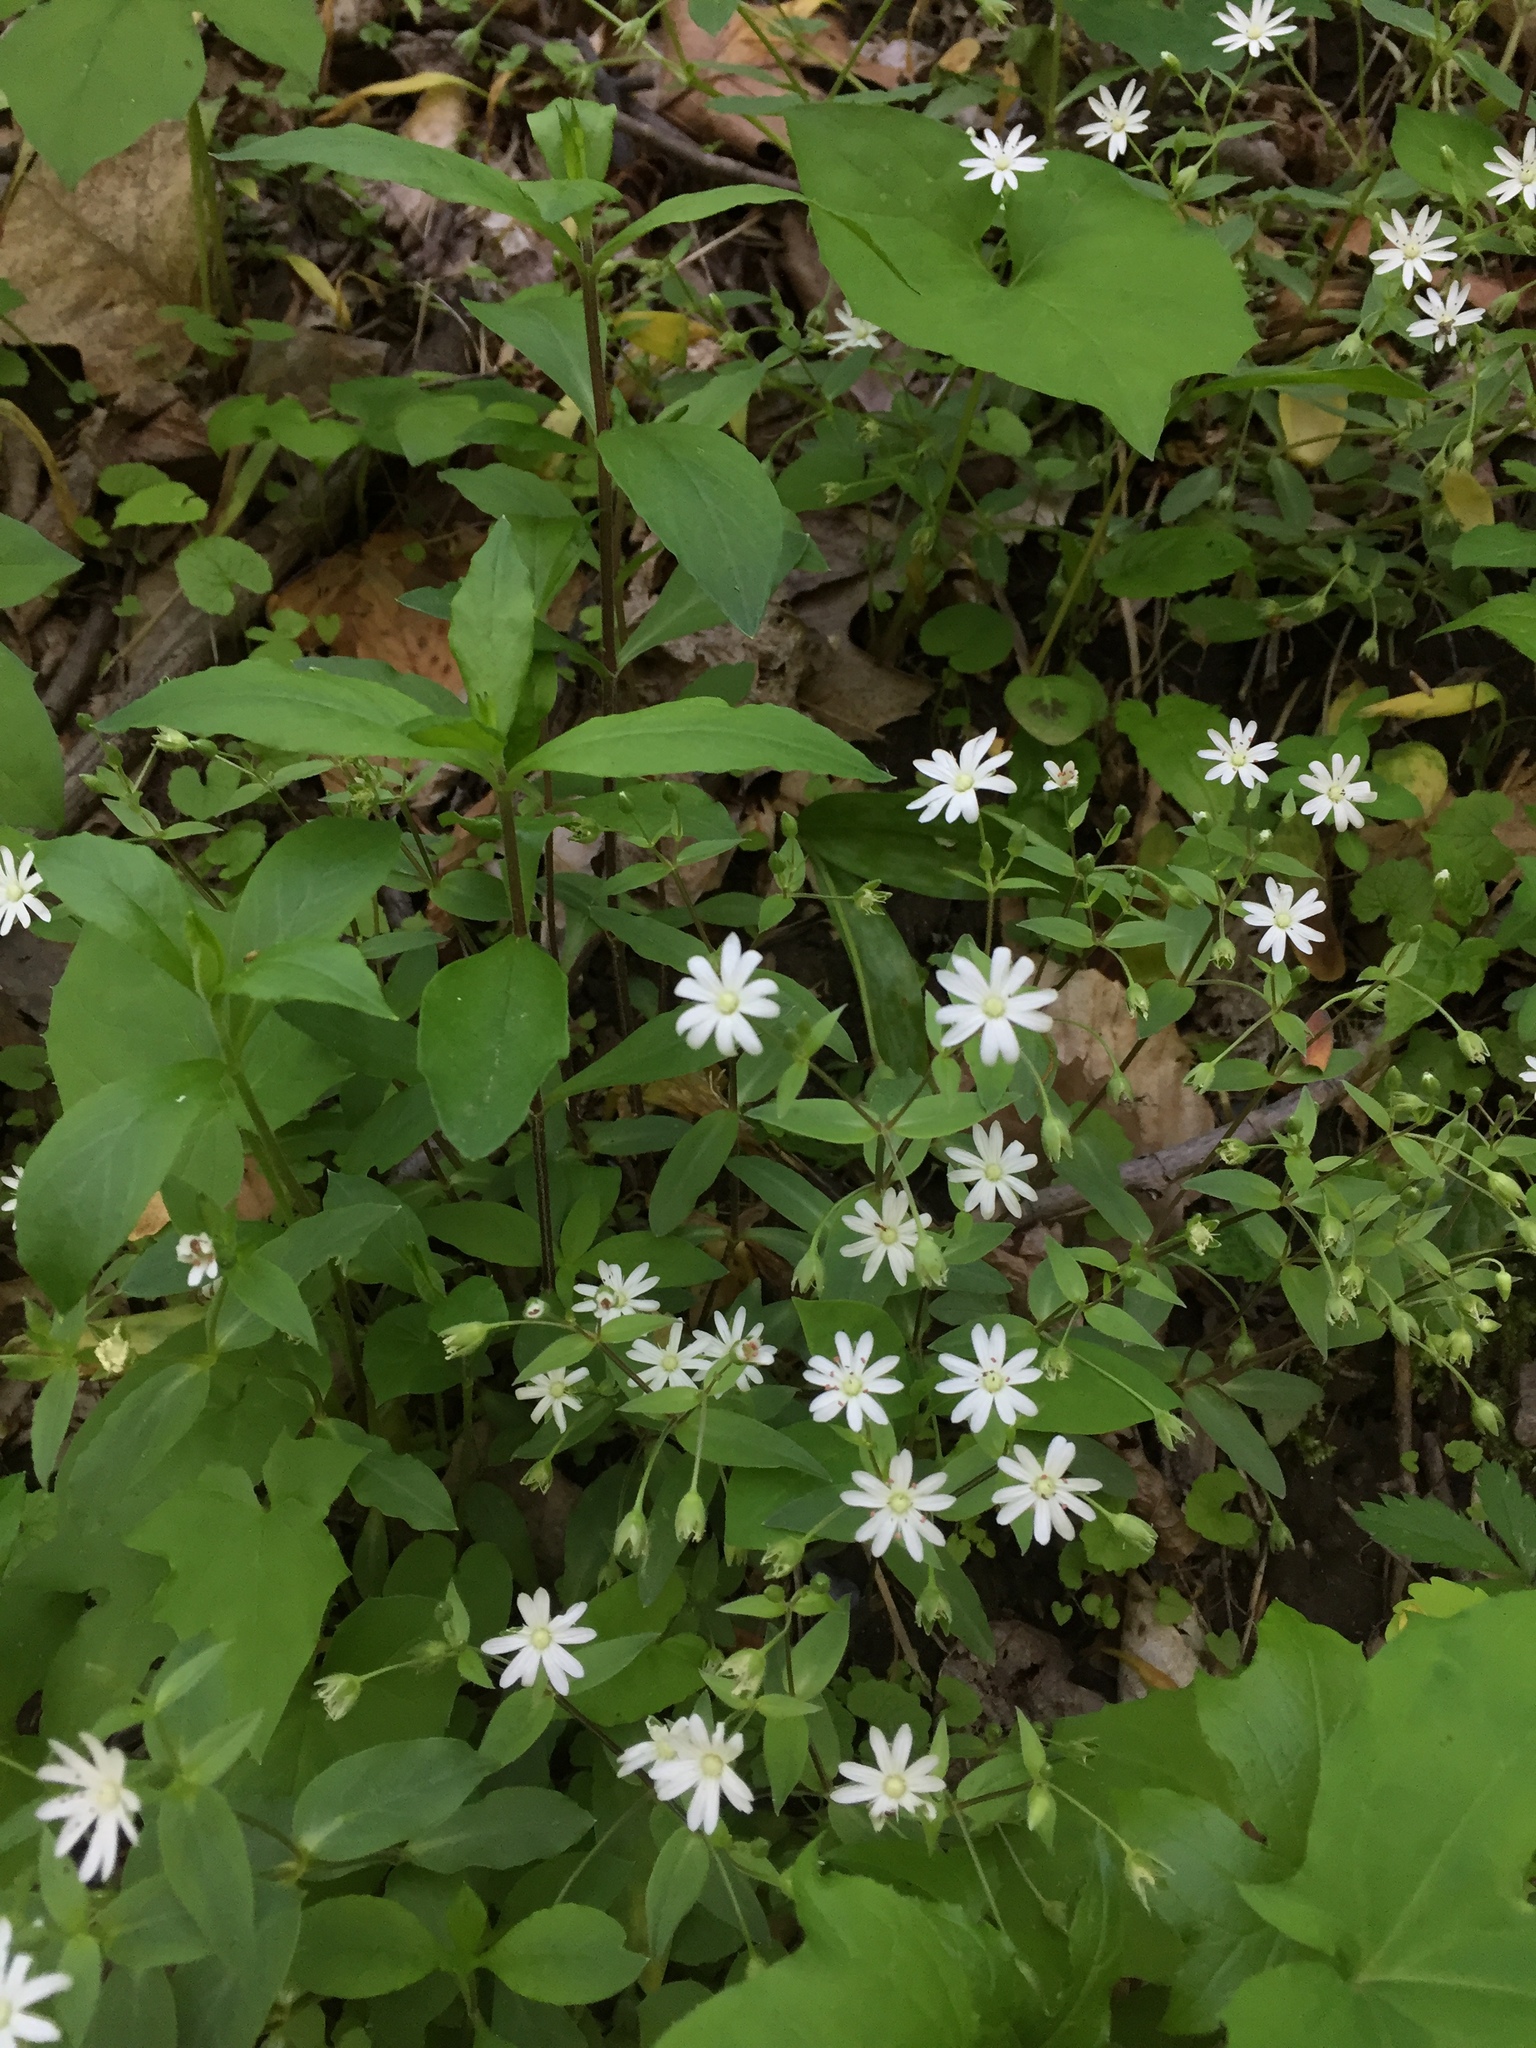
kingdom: Plantae
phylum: Tracheophyta
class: Magnoliopsida
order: Caryophyllales
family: Caryophyllaceae
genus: Stellaria
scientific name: Stellaria pubera
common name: Star chickweed
